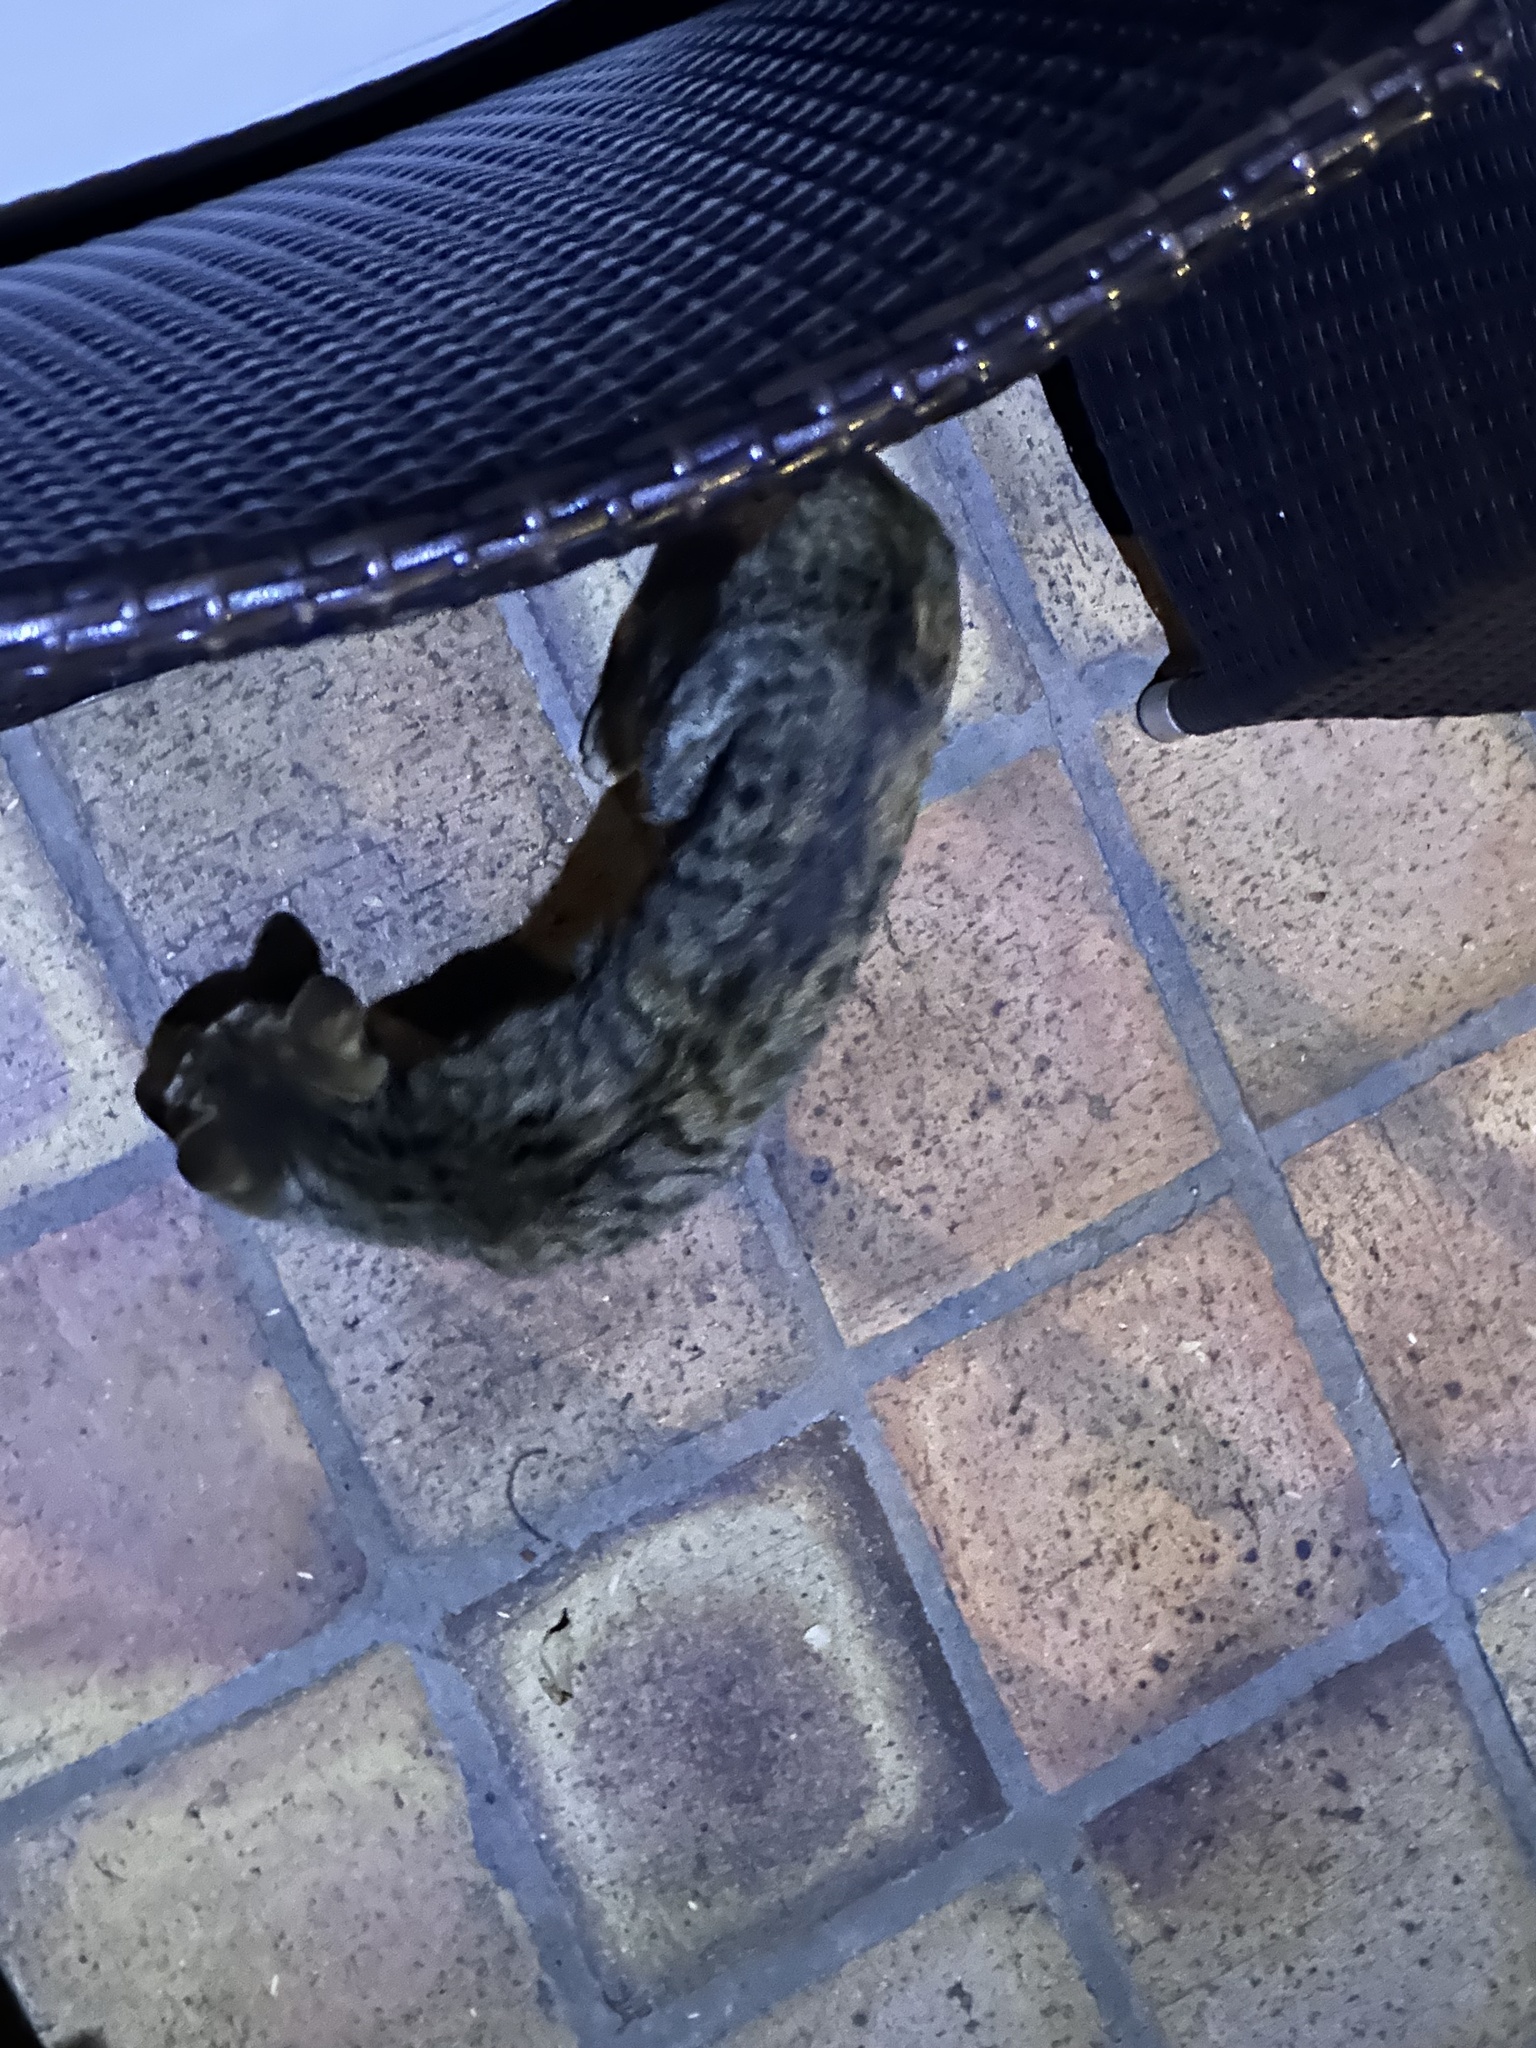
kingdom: Animalia
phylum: Chordata
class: Mammalia
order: Carnivora
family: Felidae
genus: Felis
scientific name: Felis catus
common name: Domestic cat
